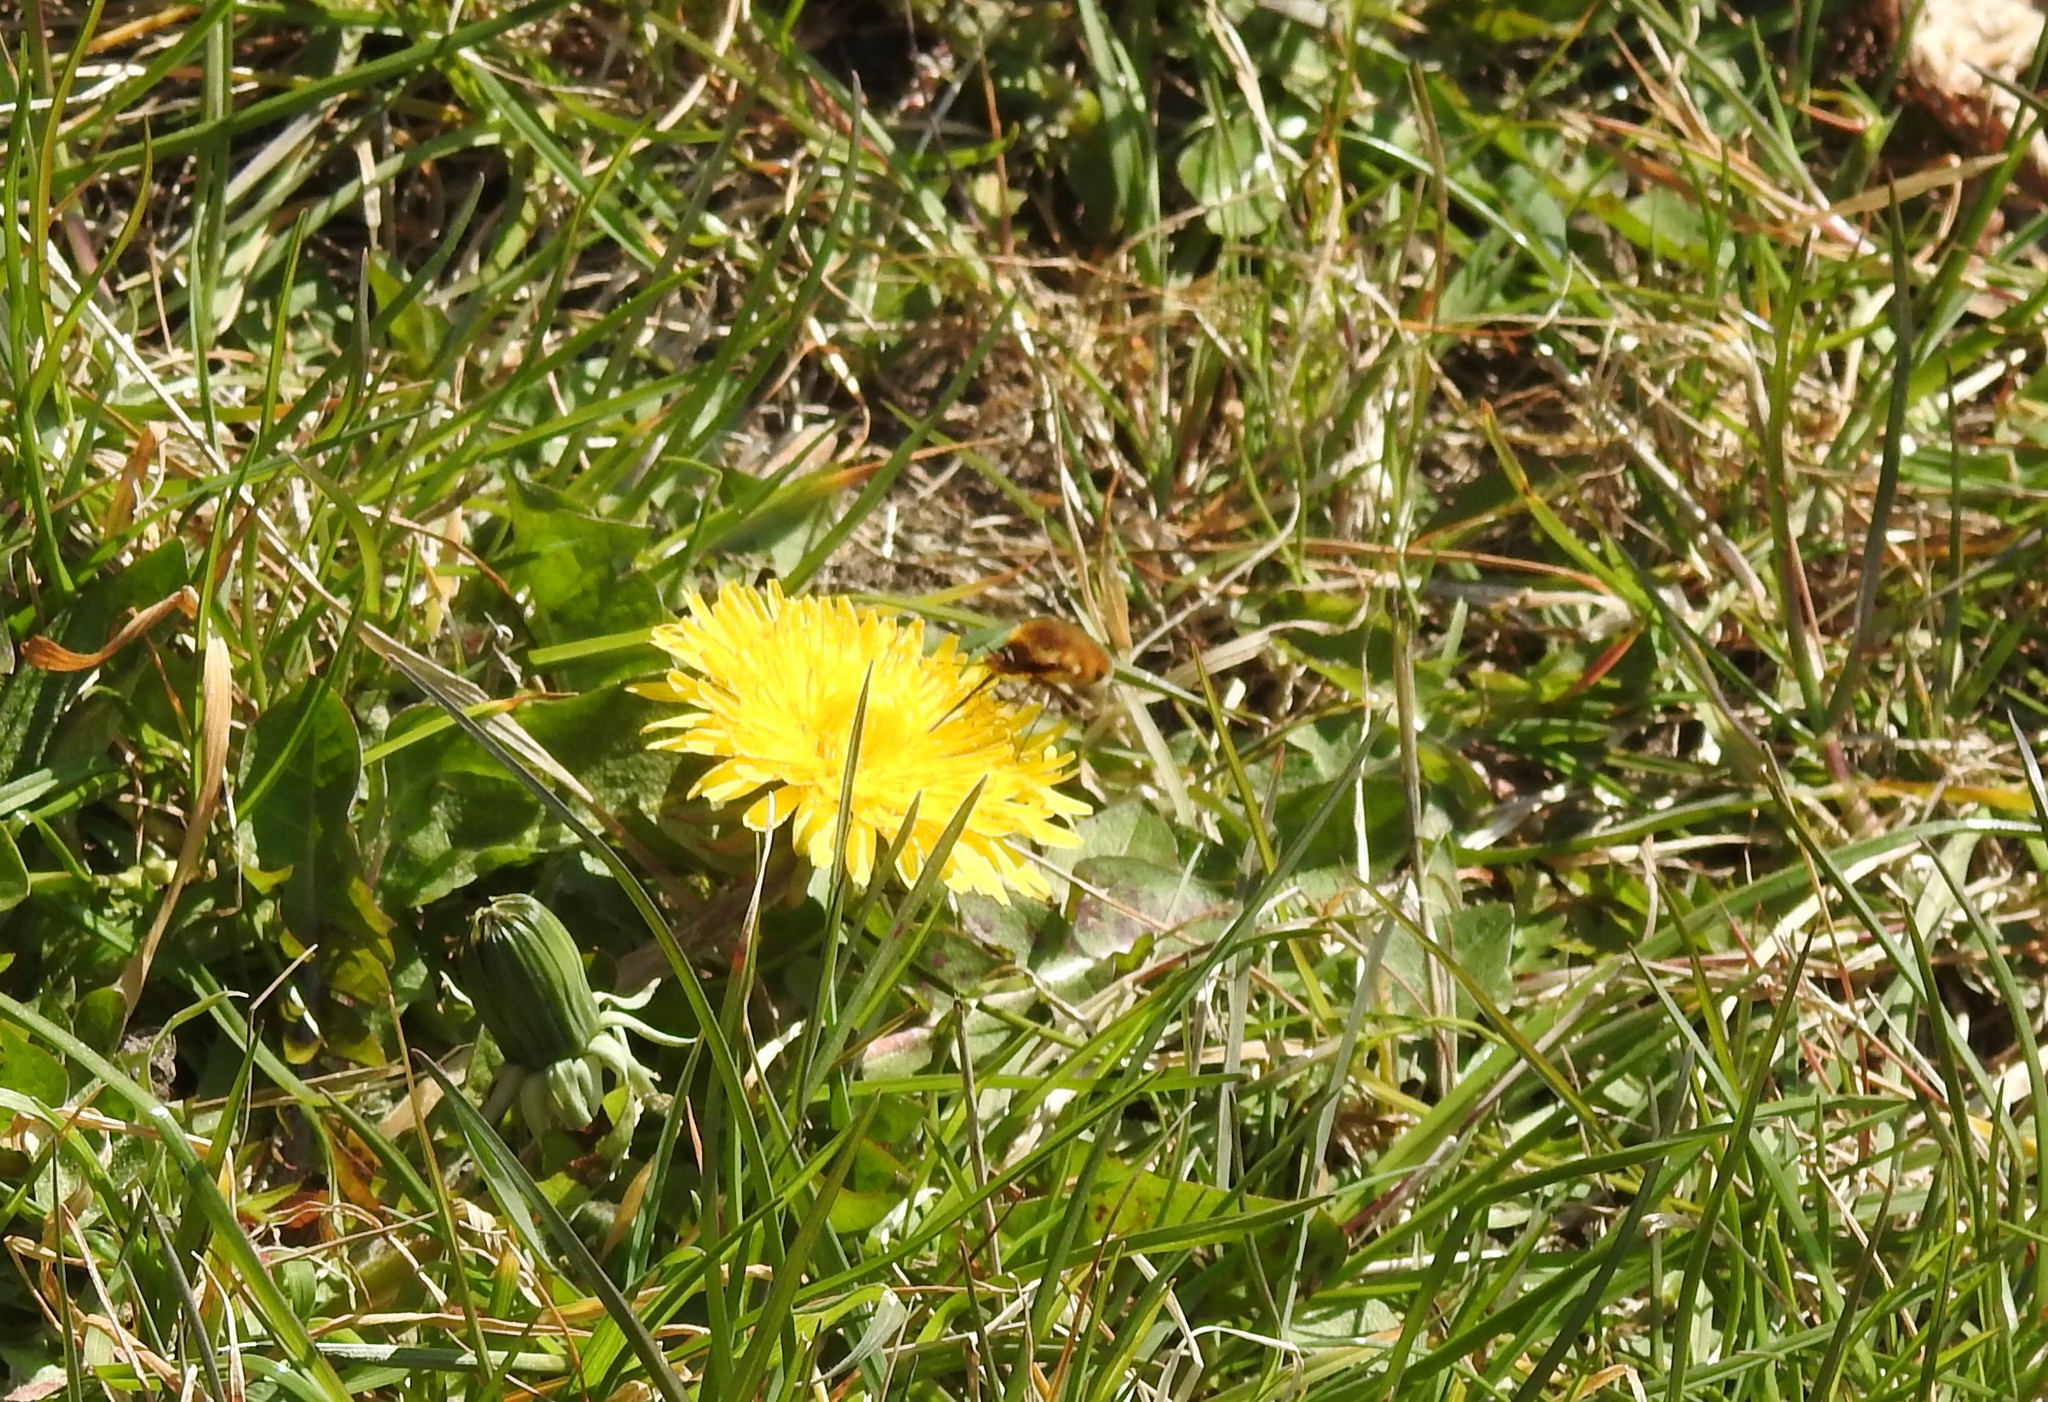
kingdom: Animalia
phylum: Arthropoda
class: Insecta
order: Diptera
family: Bombyliidae
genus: Bombylius
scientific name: Bombylius major
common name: Bee fly
